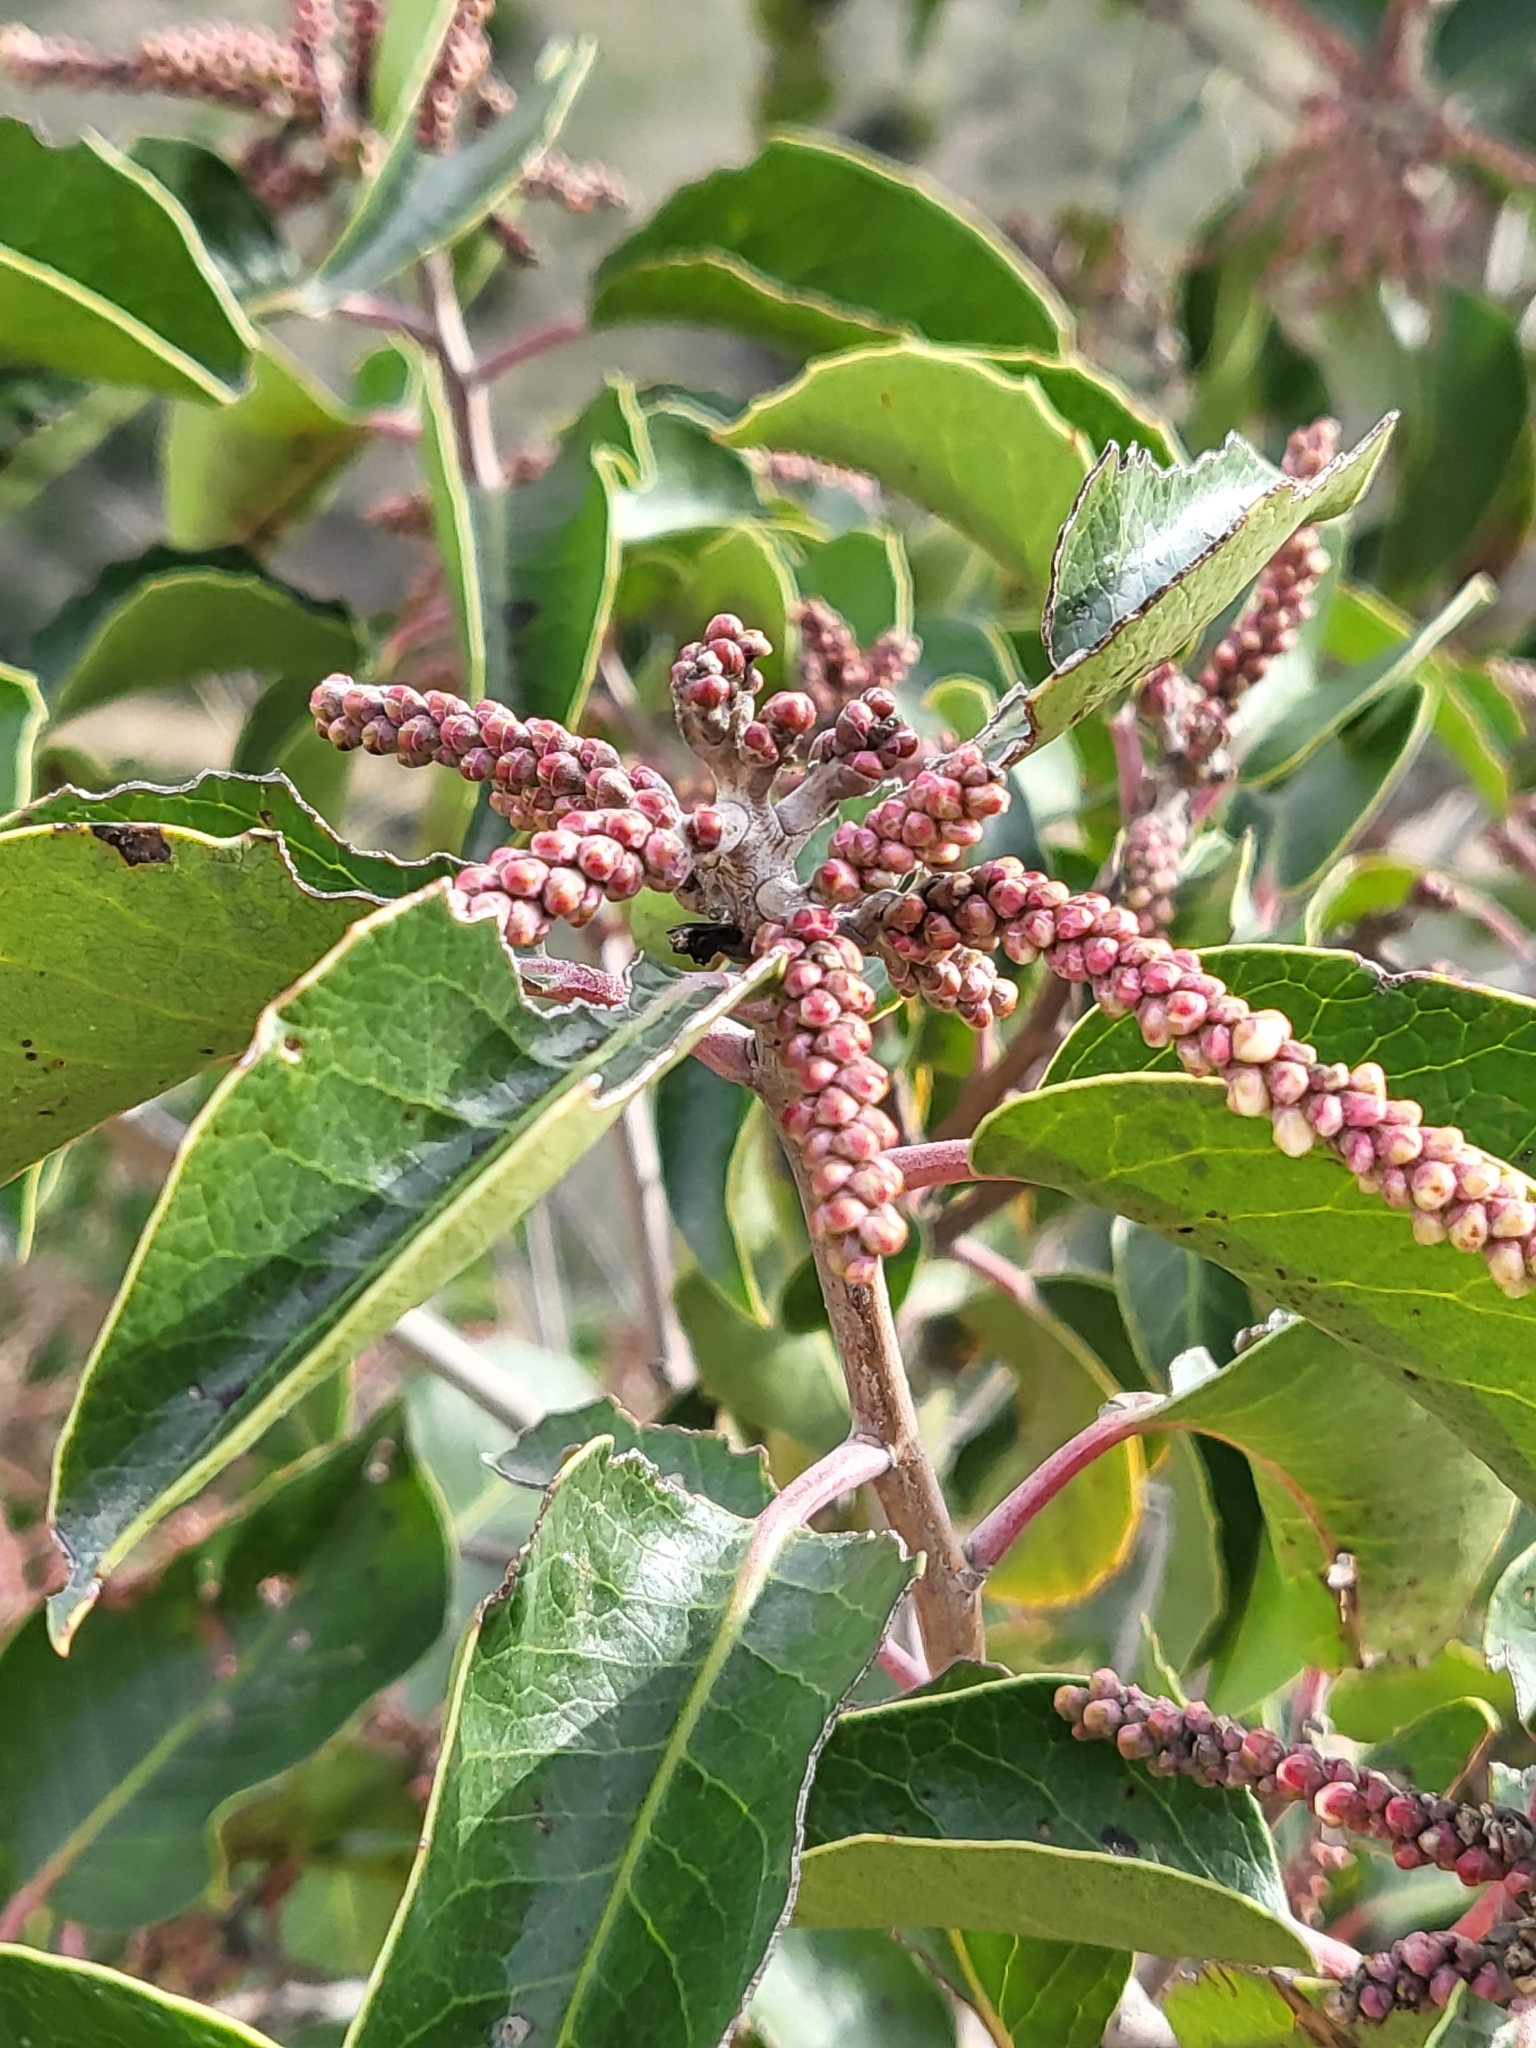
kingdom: Plantae
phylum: Tracheophyta
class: Magnoliopsida
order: Sapindales
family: Anacardiaceae
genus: Rhus
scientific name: Rhus ovata
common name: Sugar sumac
